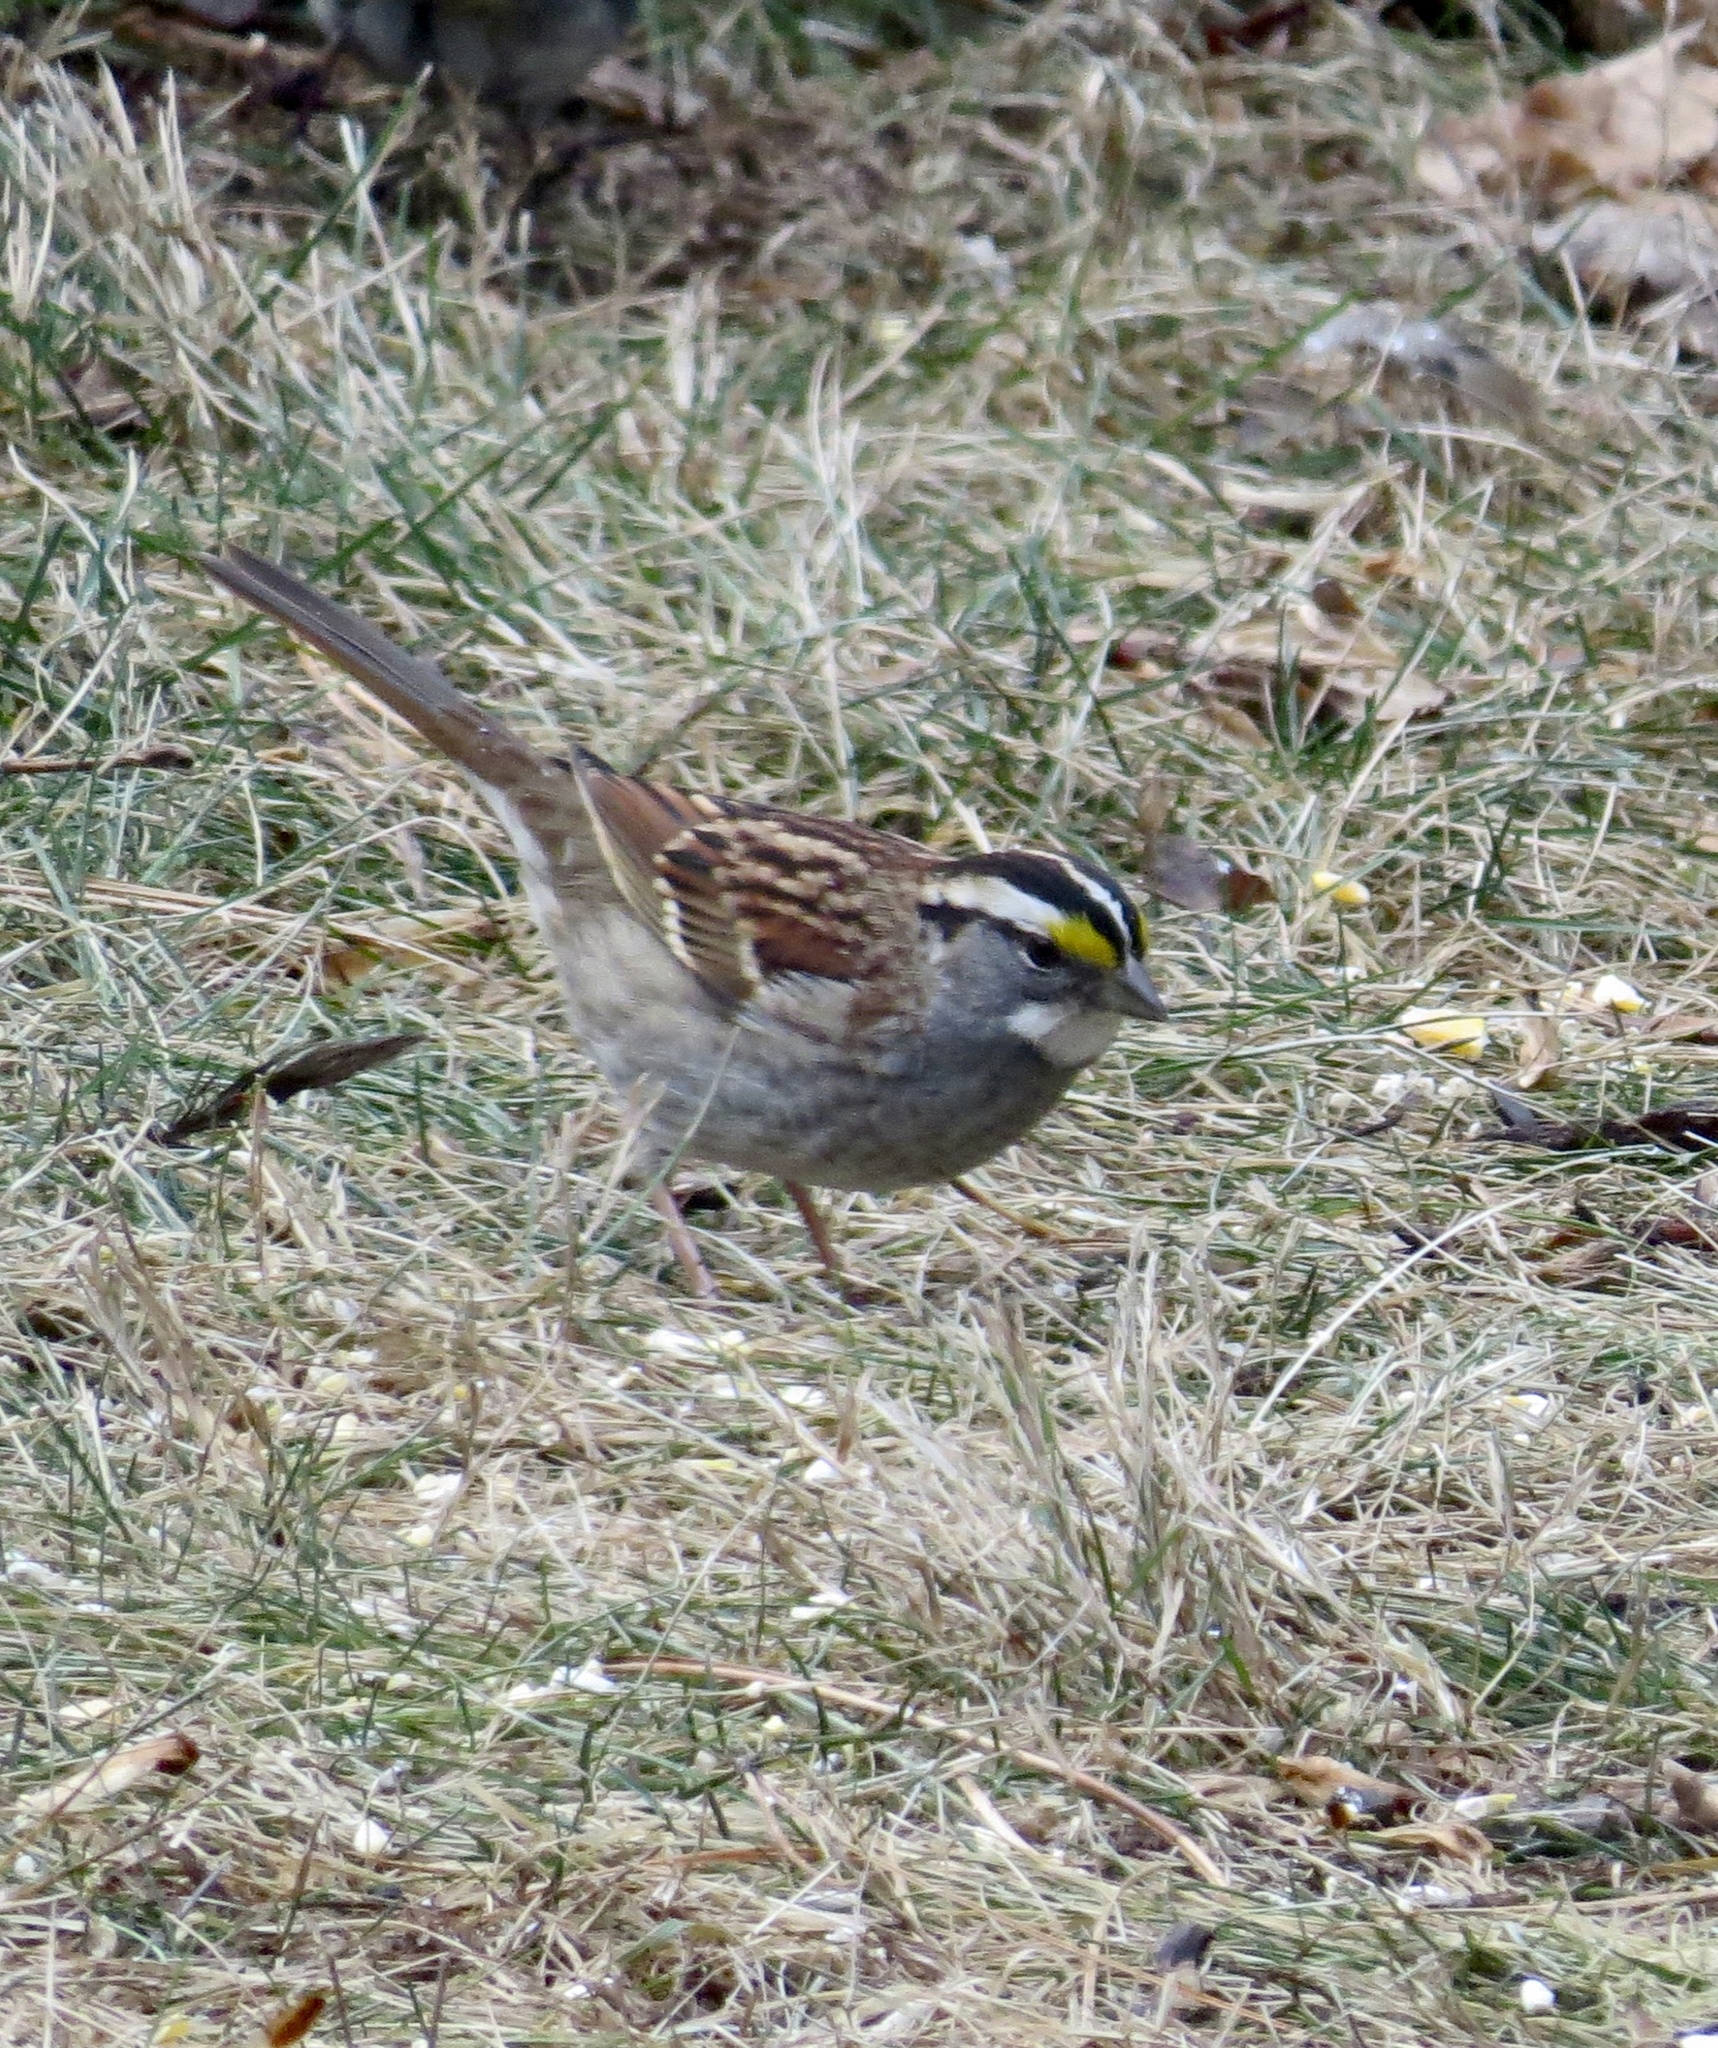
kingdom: Animalia
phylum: Chordata
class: Aves
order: Passeriformes
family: Passerellidae
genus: Zonotrichia
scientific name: Zonotrichia albicollis
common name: White-throated sparrow
